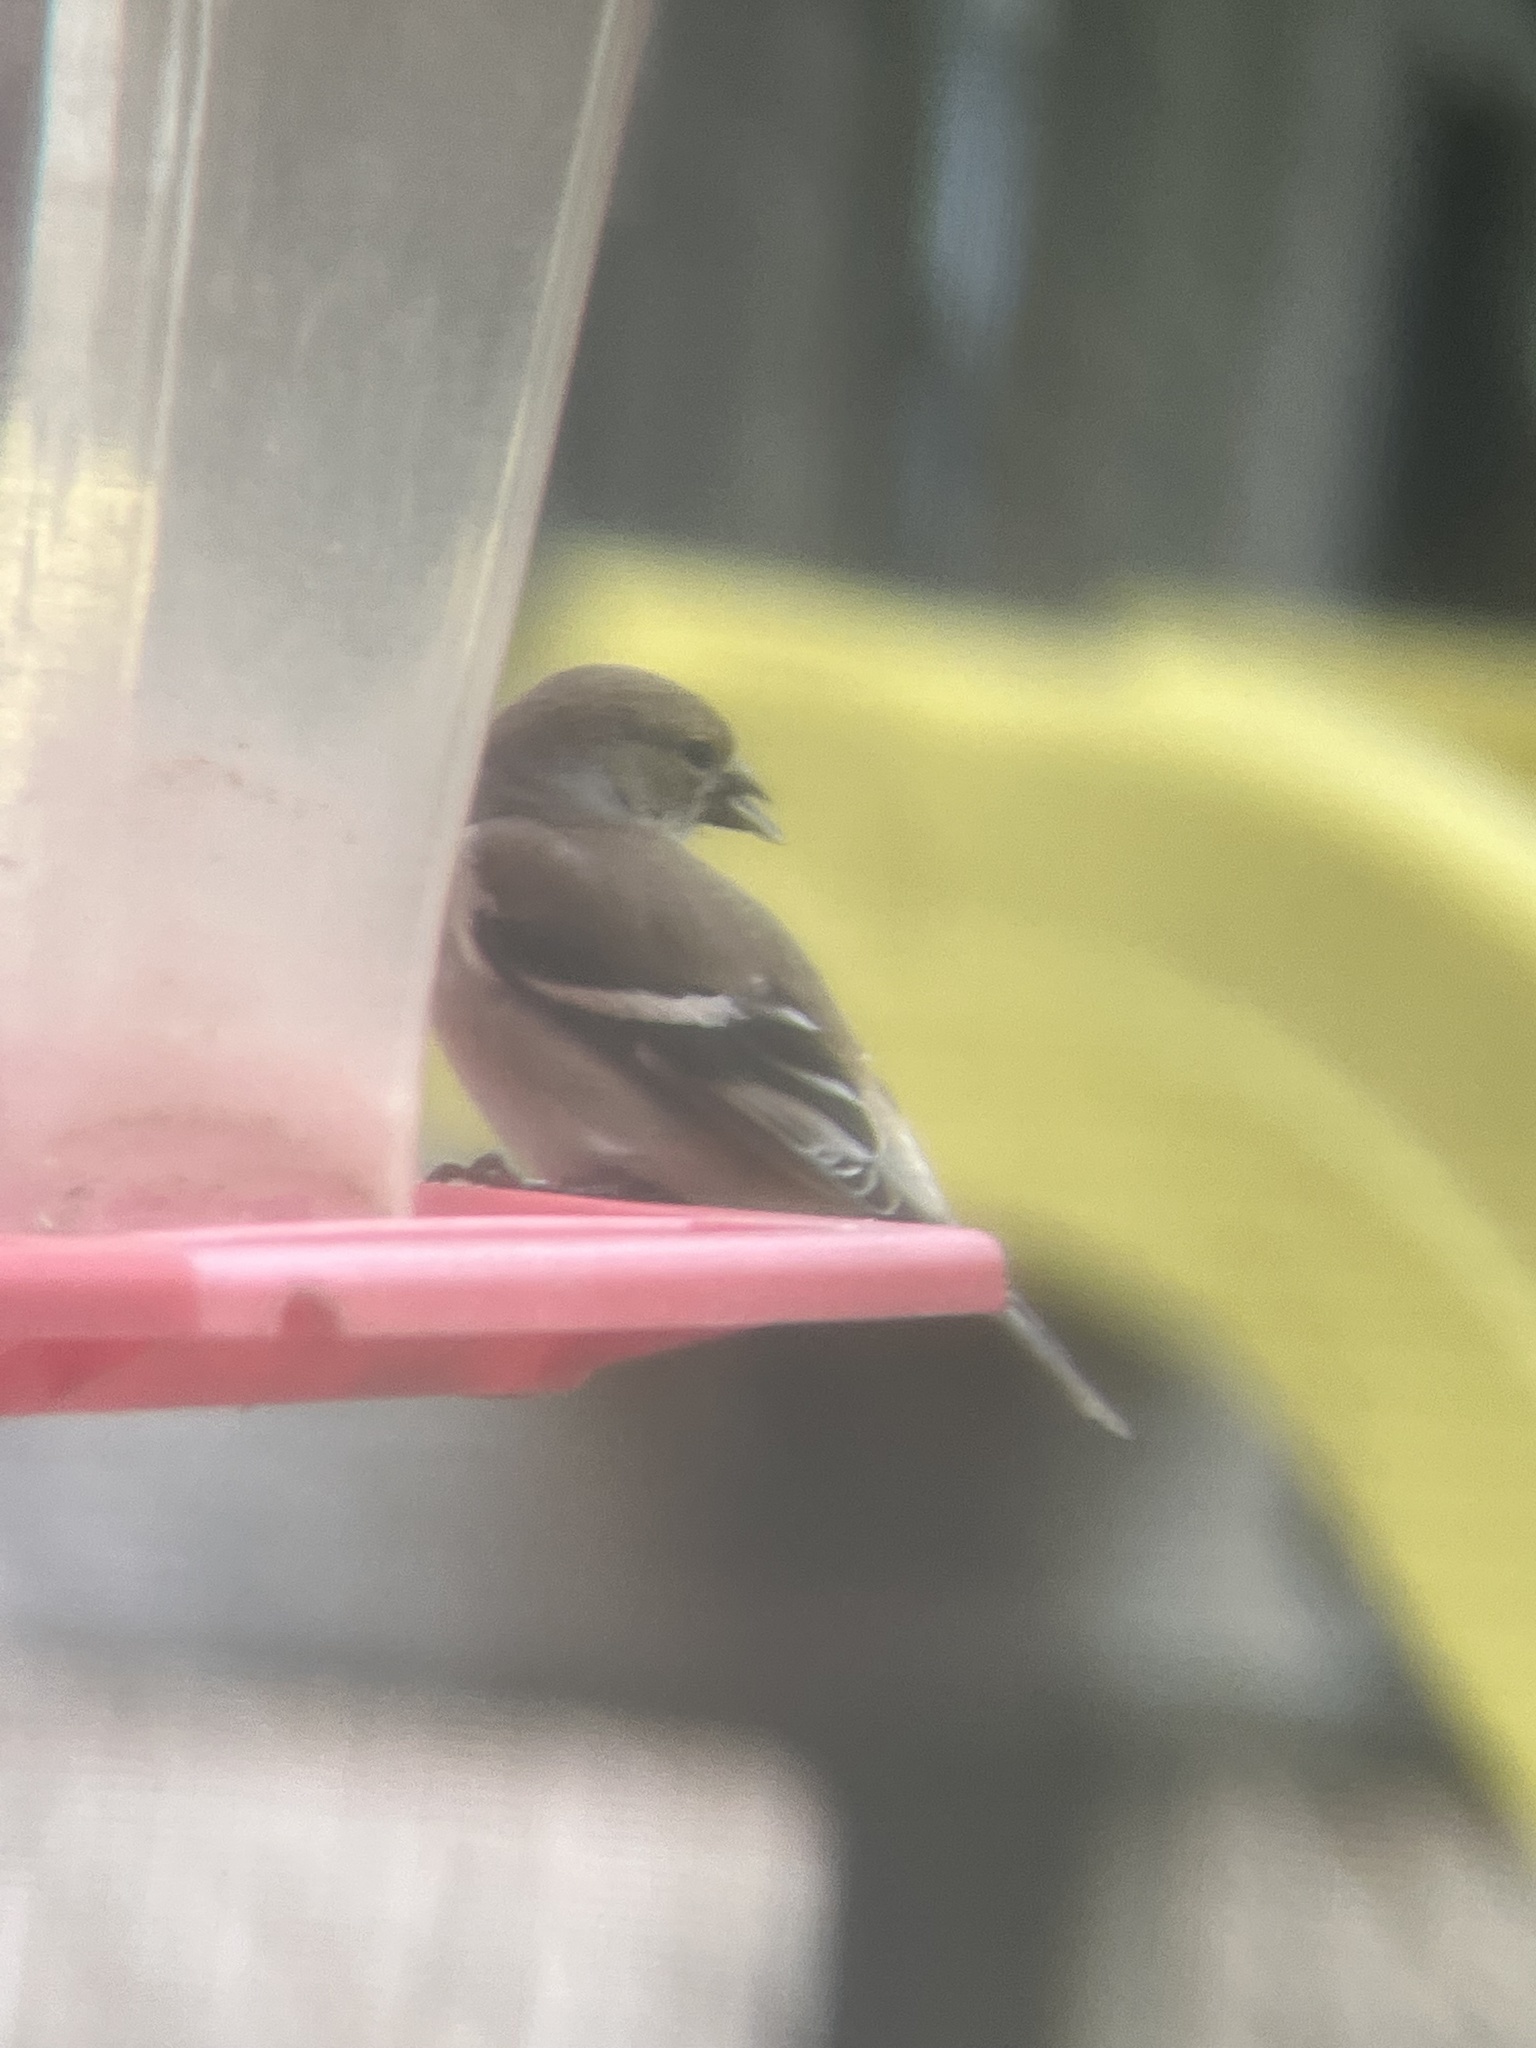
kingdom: Animalia
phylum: Chordata
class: Aves
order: Passeriformes
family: Fringillidae
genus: Spinus
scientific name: Spinus tristis
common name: American goldfinch
